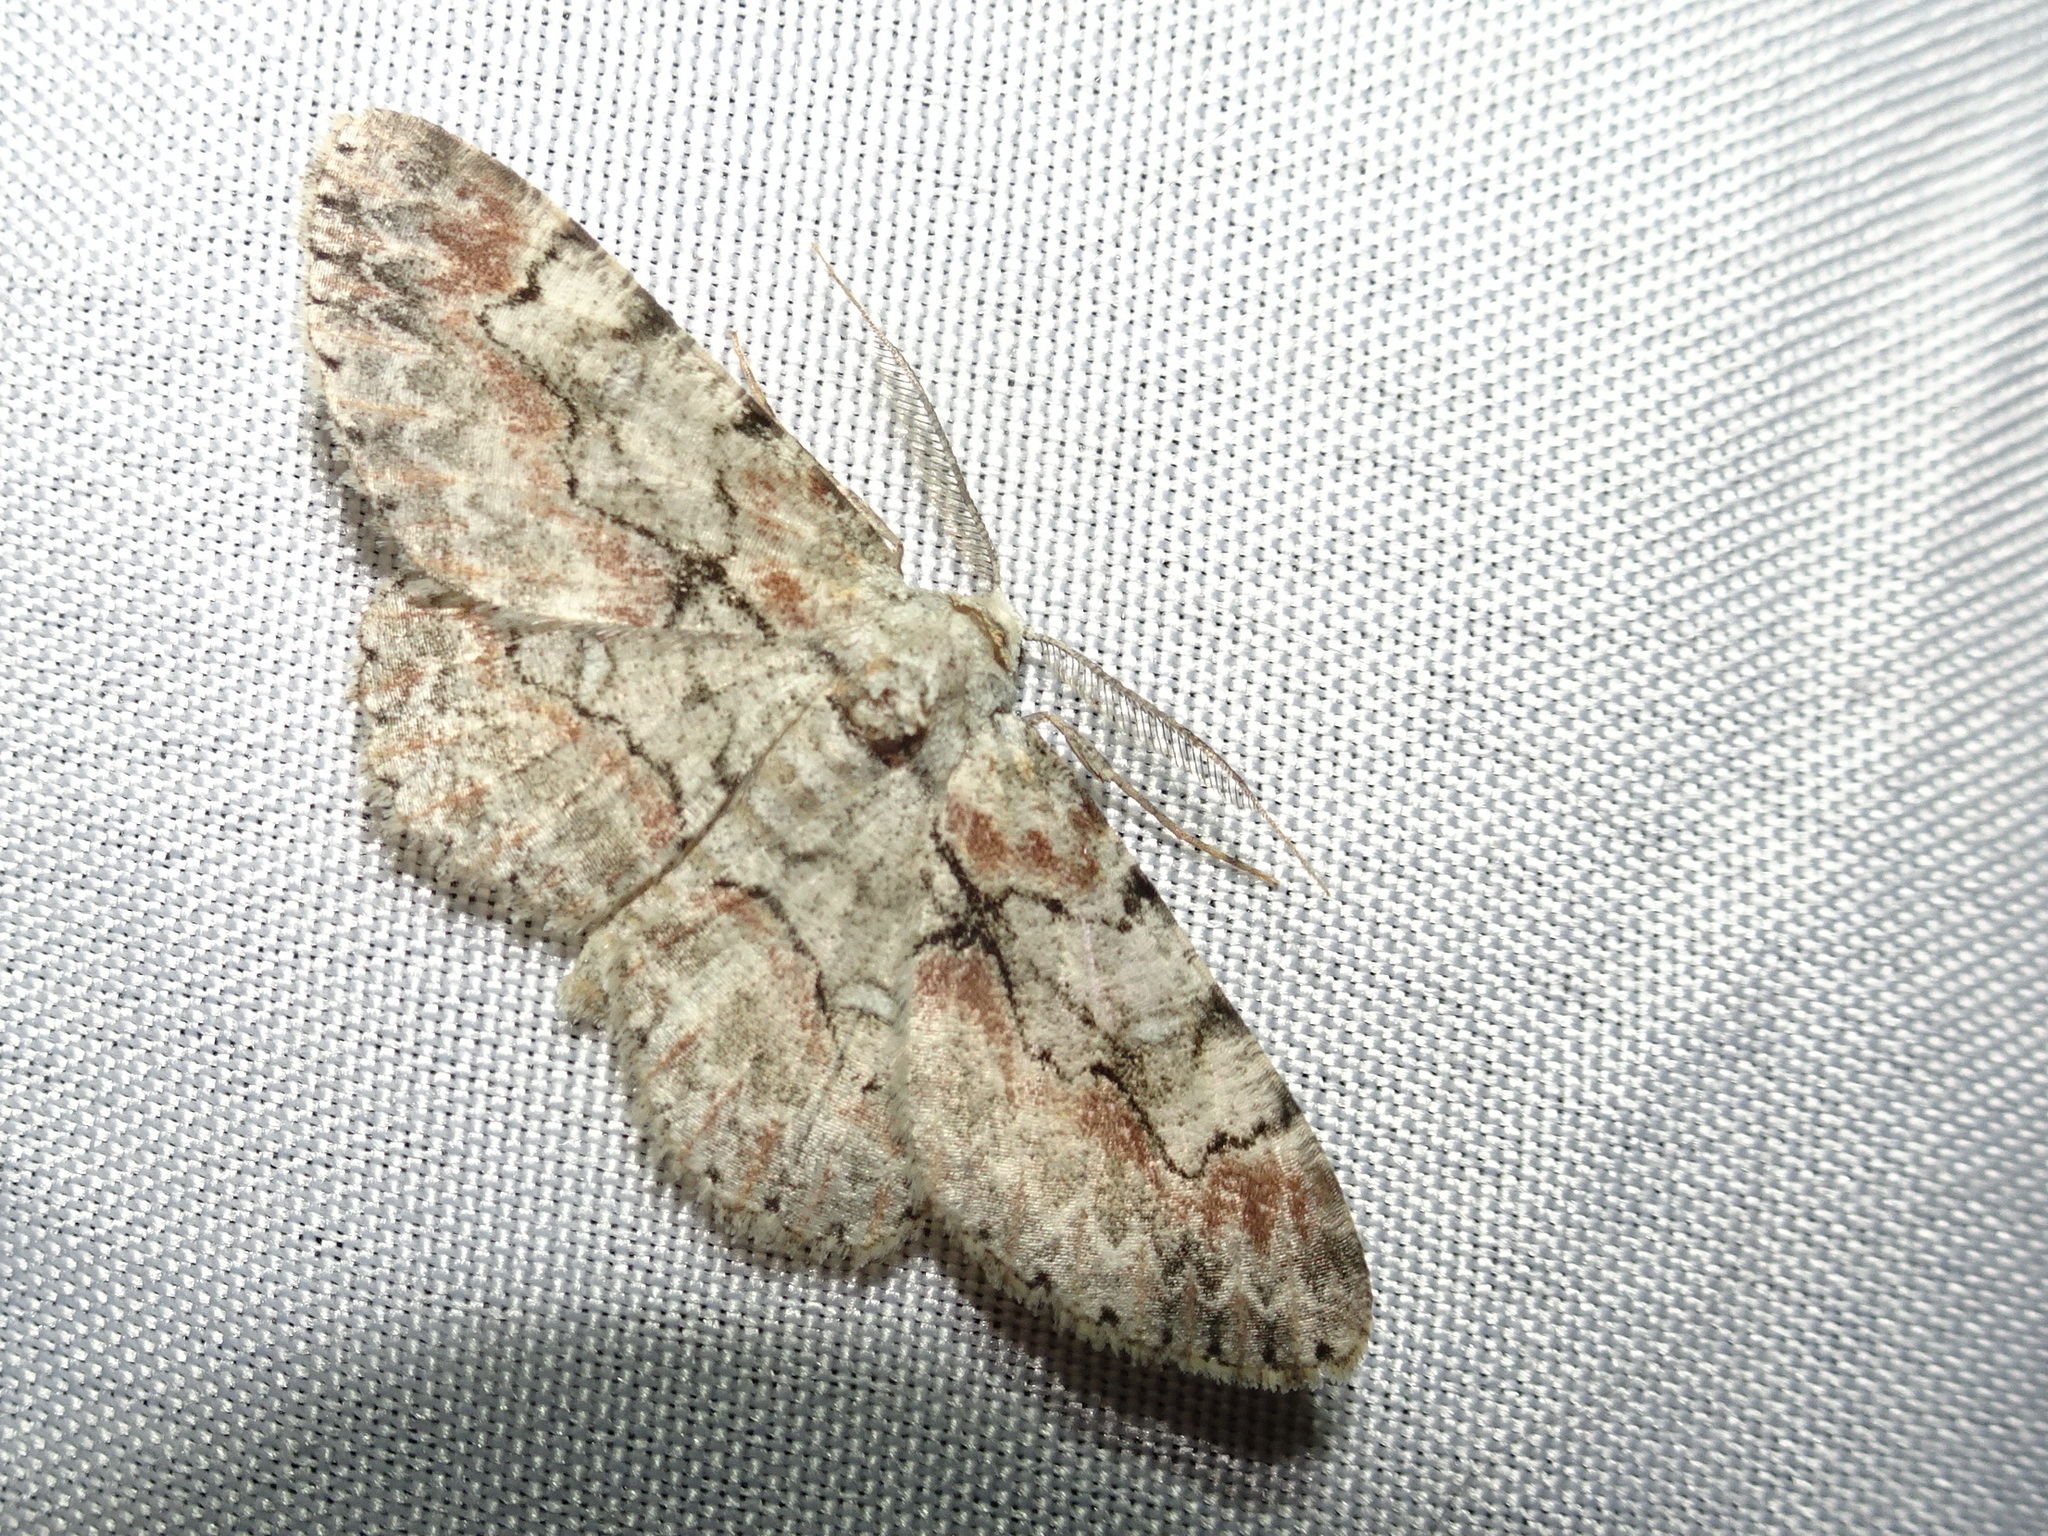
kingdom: Animalia
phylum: Arthropoda
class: Insecta
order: Lepidoptera
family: Geometridae
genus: Iridopsis
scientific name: Iridopsis defectaria
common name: Brown-shaded gray
